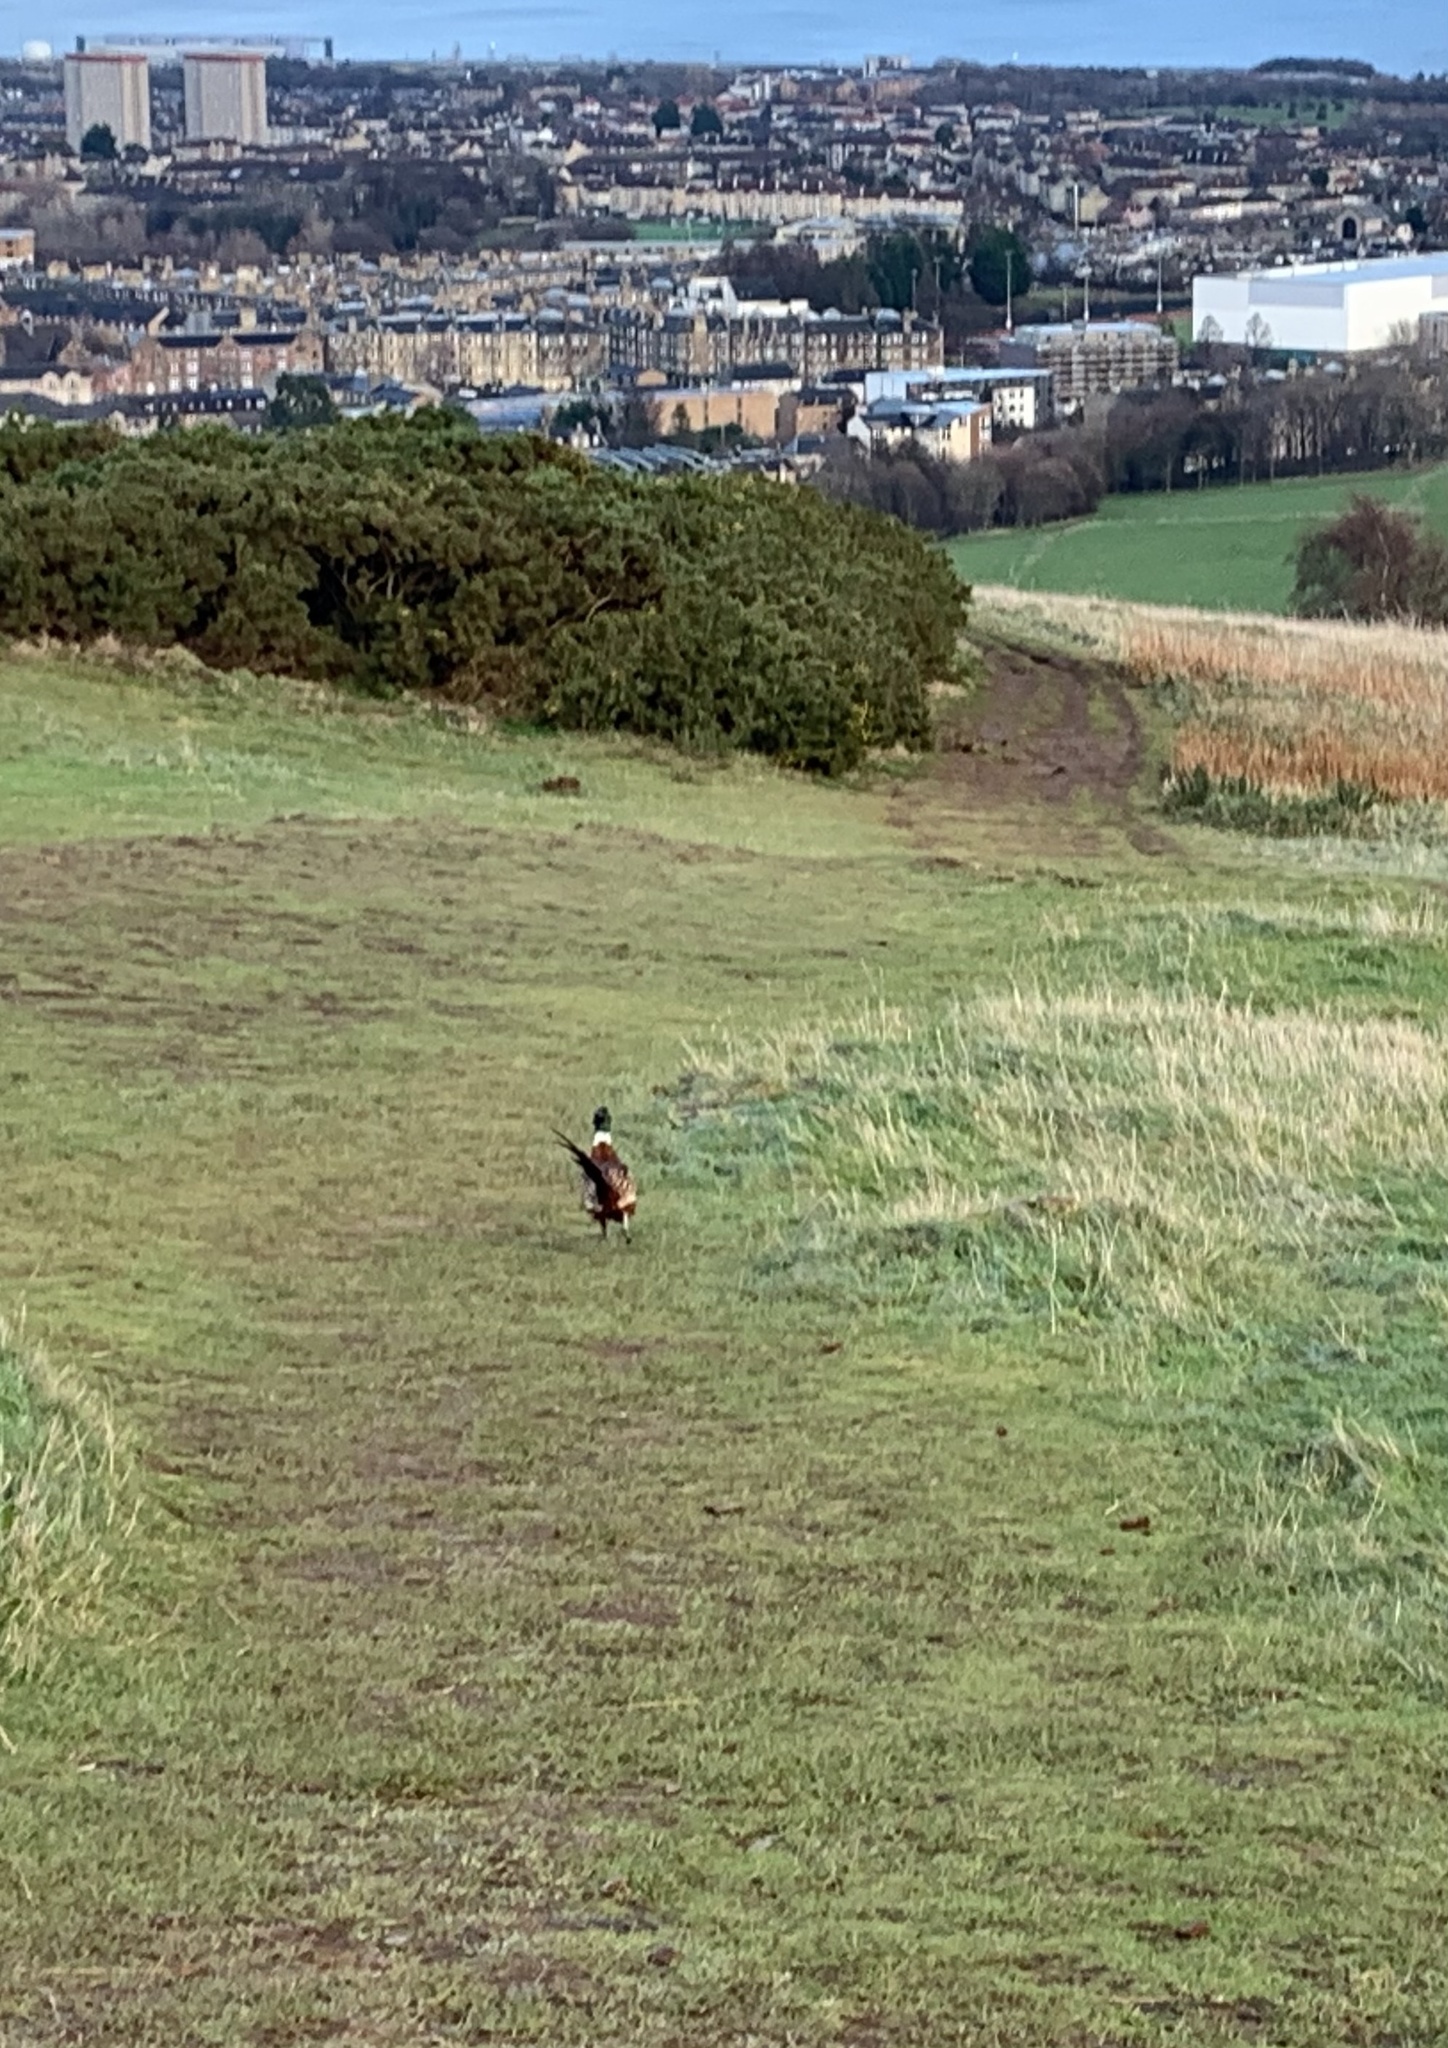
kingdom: Animalia
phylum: Chordata
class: Aves
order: Galliformes
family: Phasianidae
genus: Phasianus
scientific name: Phasianus colchicus
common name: Common pheasant
